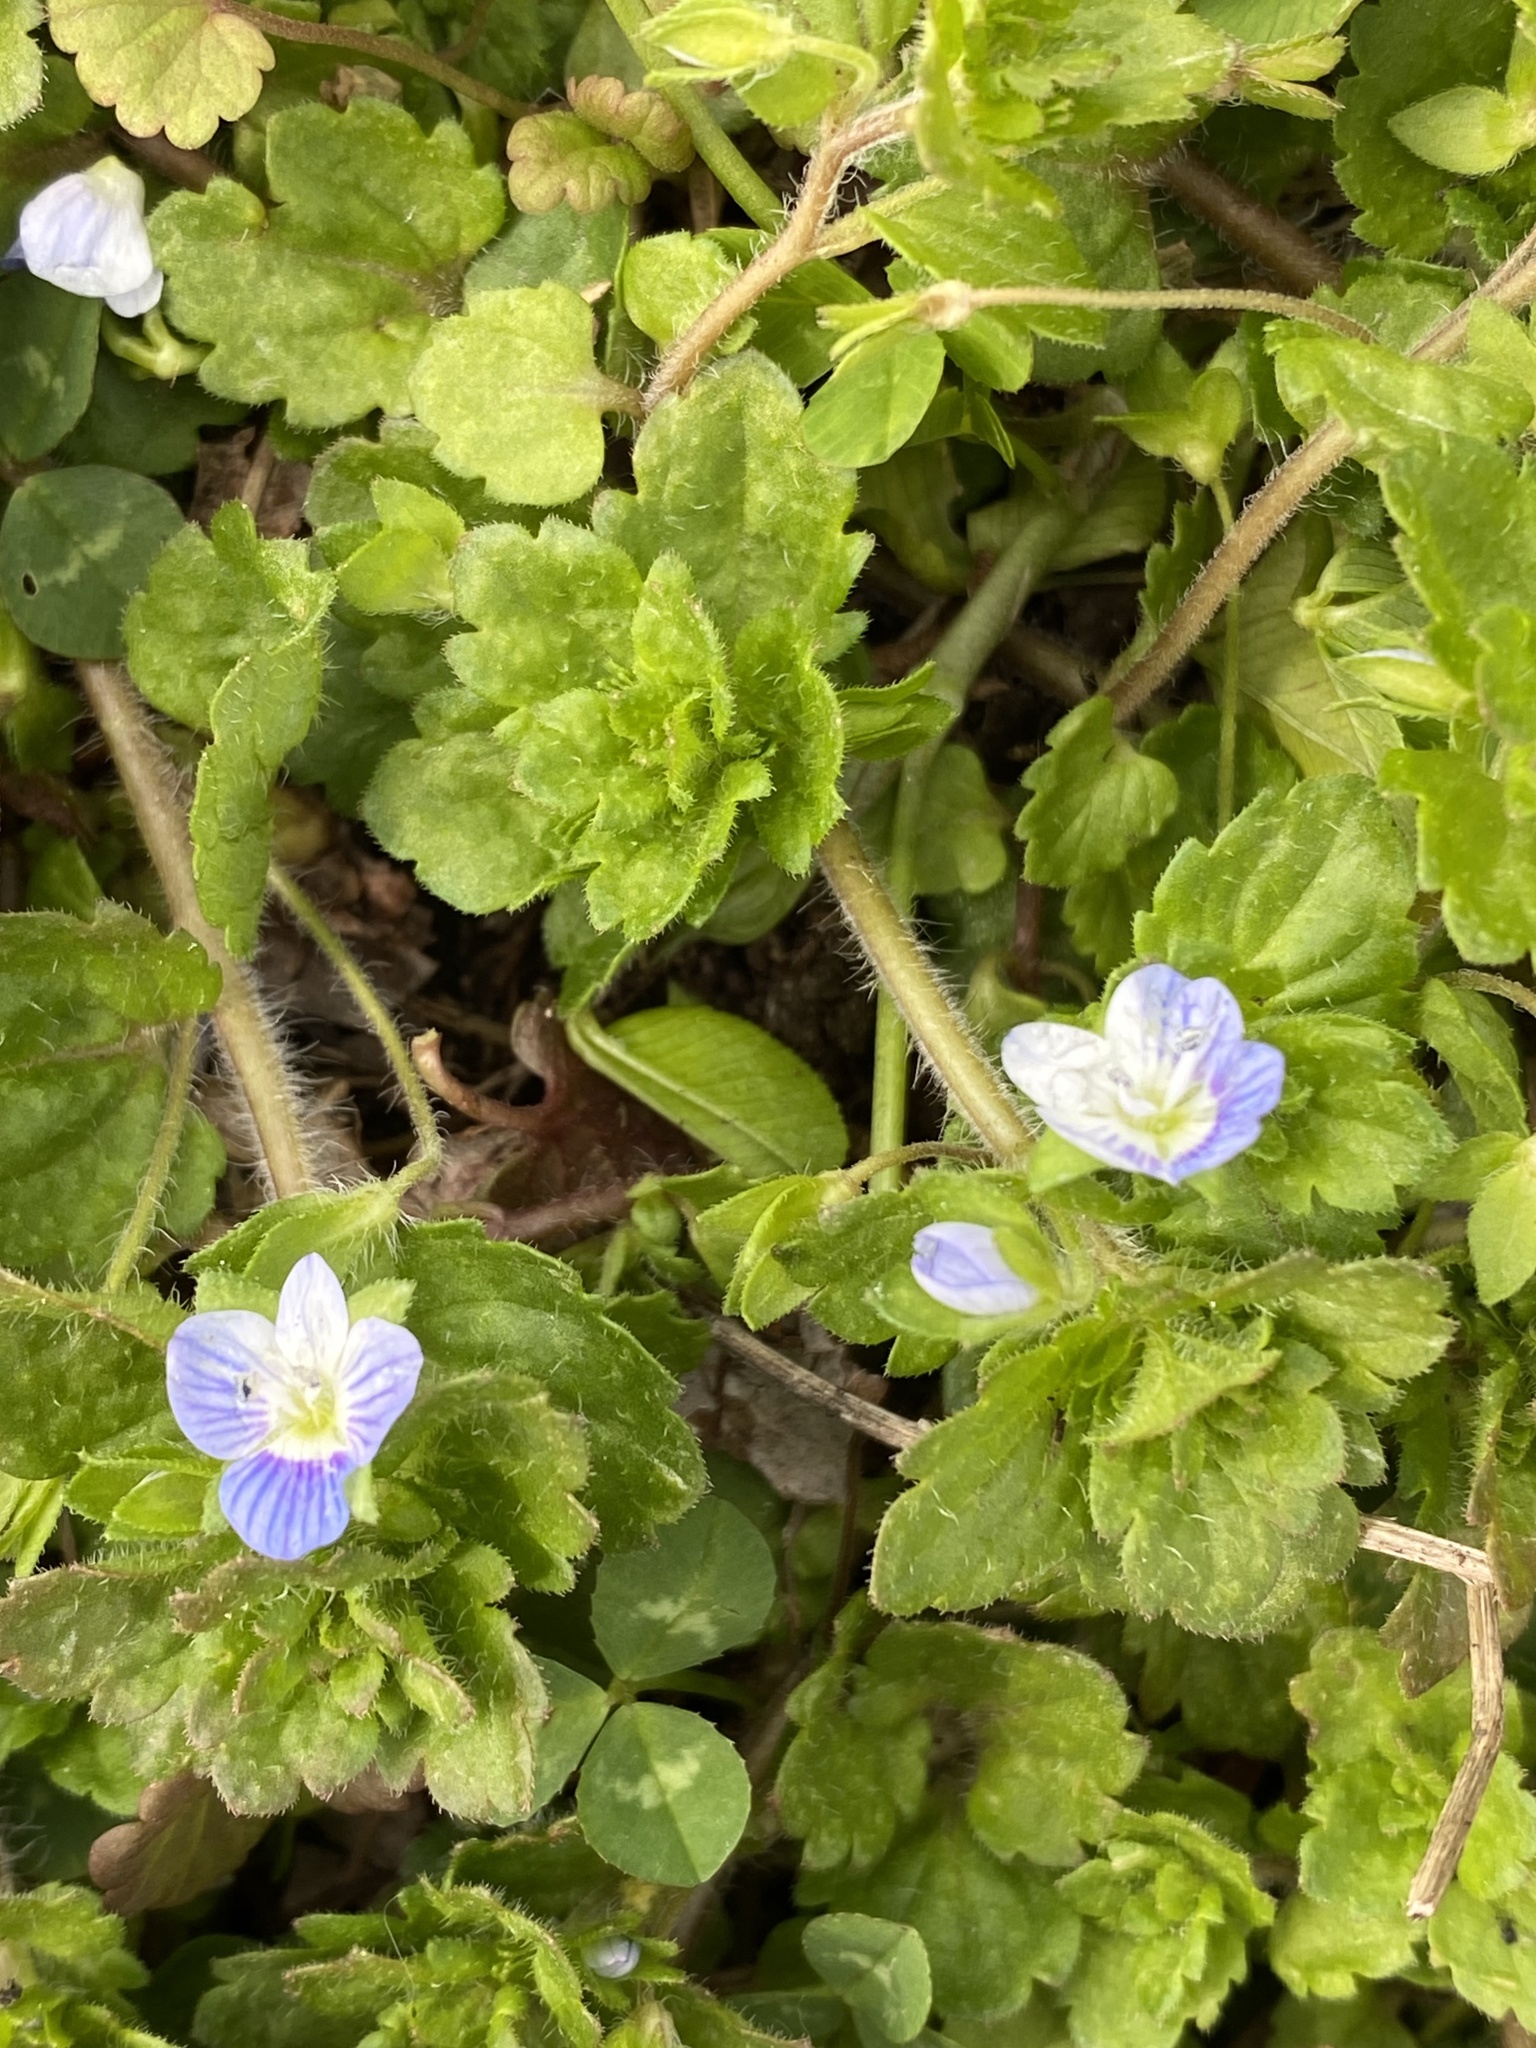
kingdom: Plantae
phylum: Tracheophyta
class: Magnoliopsida
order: Lamiales
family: Plantaginaceae
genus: Veronica
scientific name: Veronica persica
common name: Common field-speedwell
